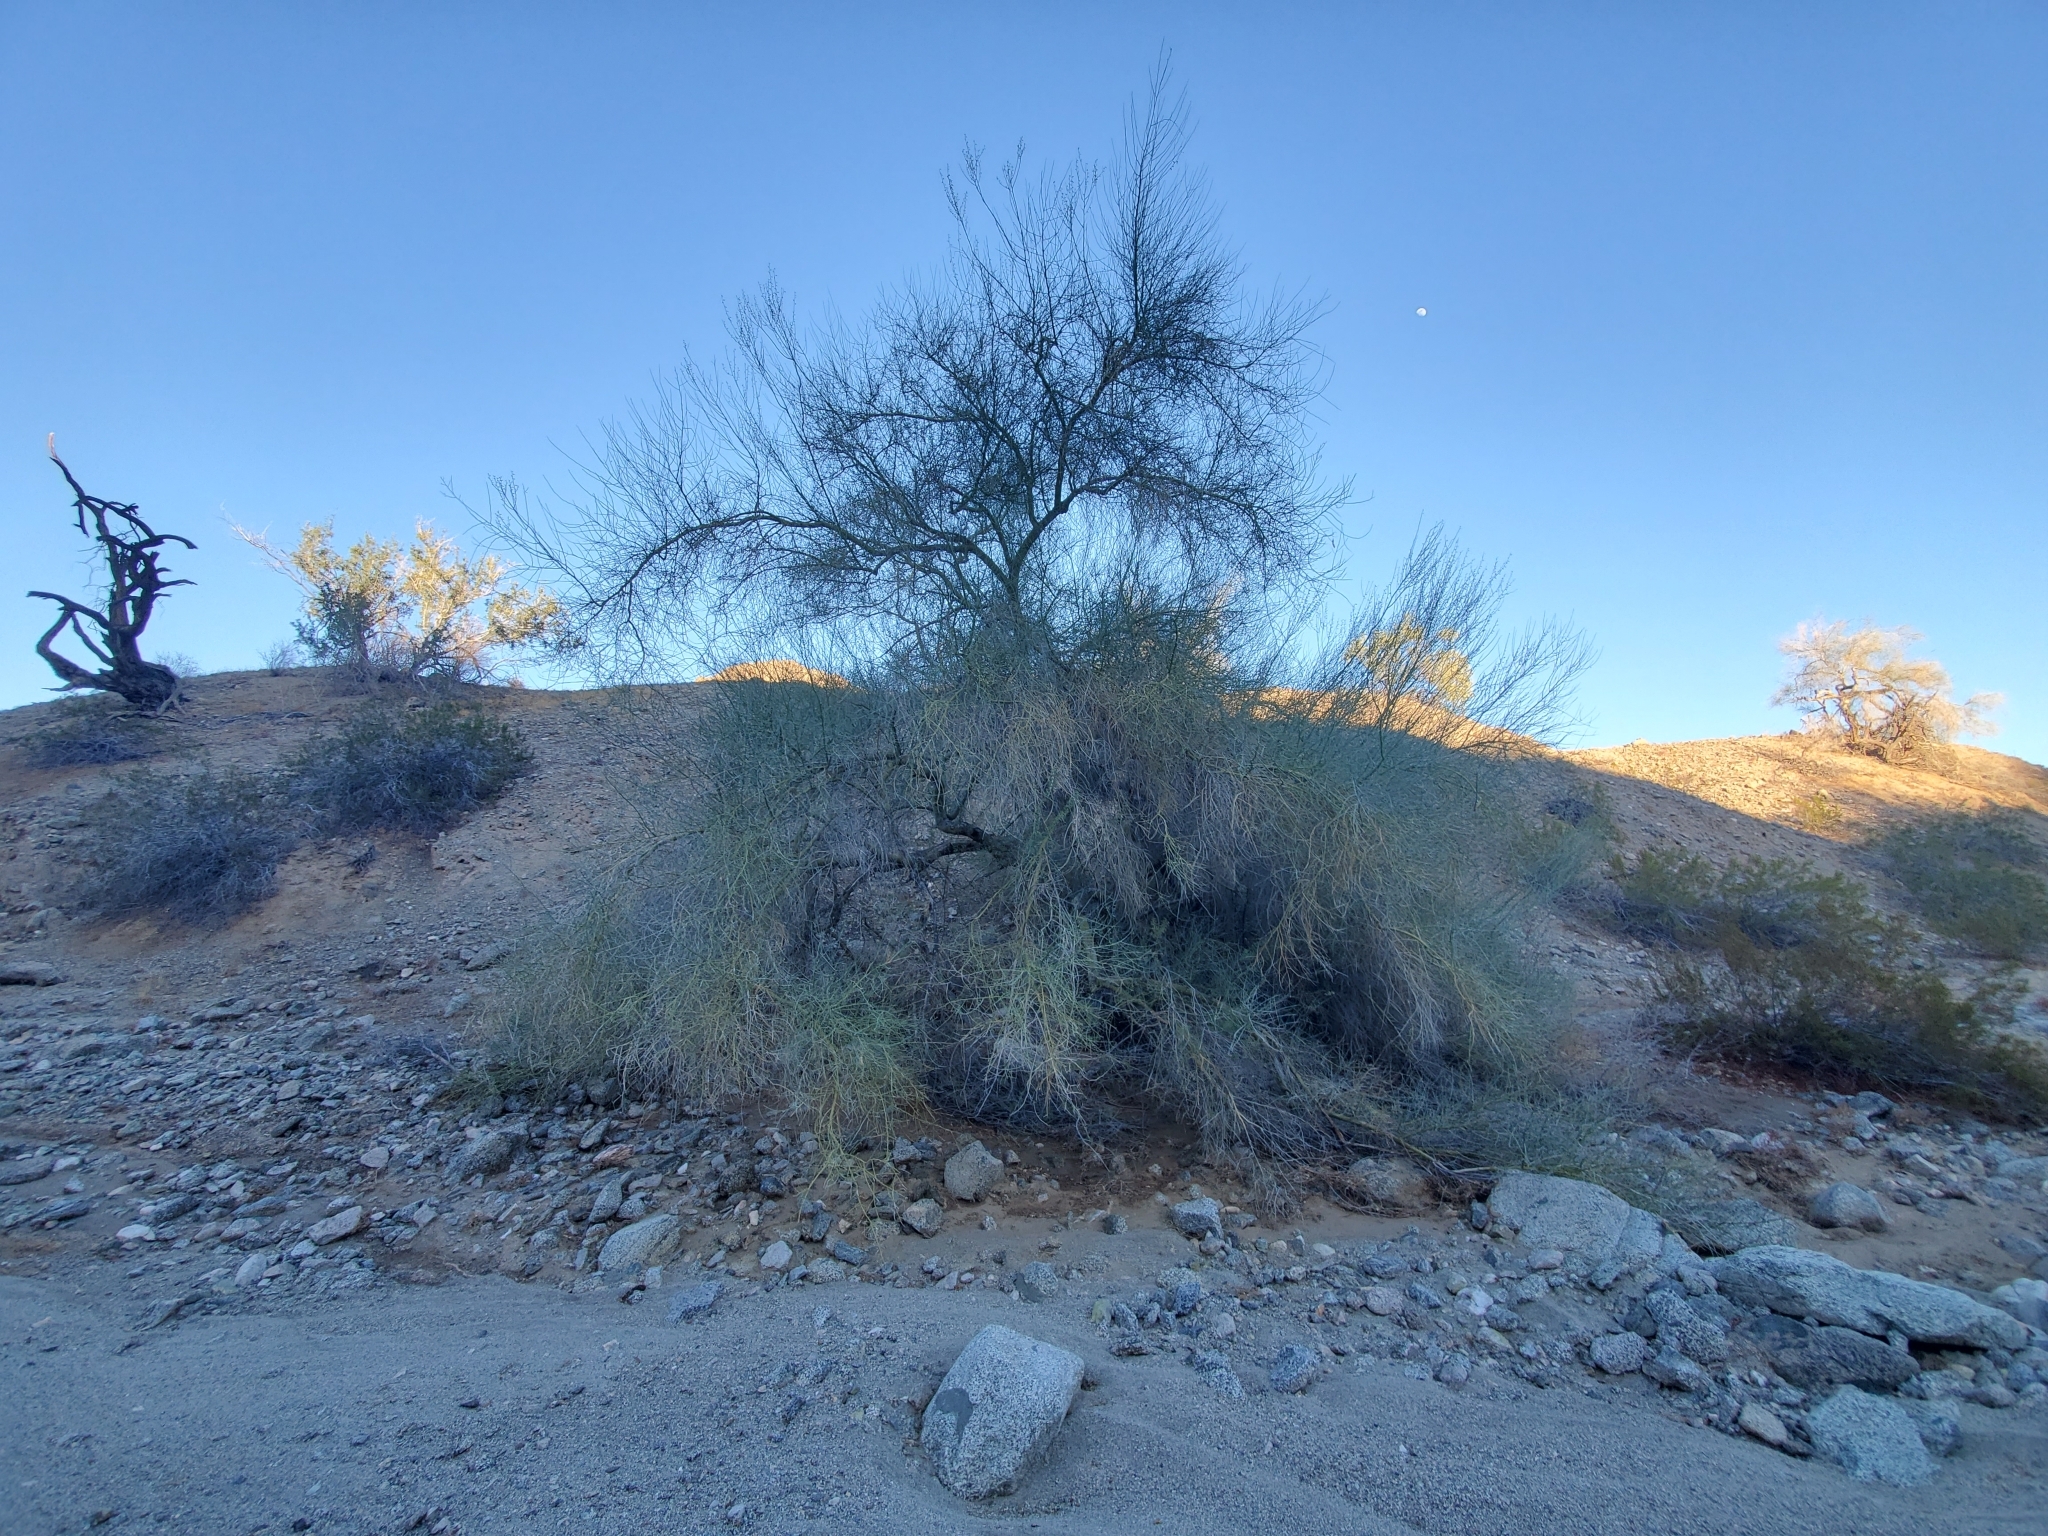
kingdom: Plantae
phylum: Tracheophyta
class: Magnoliopsida
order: Fabales
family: Fabaceae
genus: Parkinsonia
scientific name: Parkinsonia florida
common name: Blue paloverde
